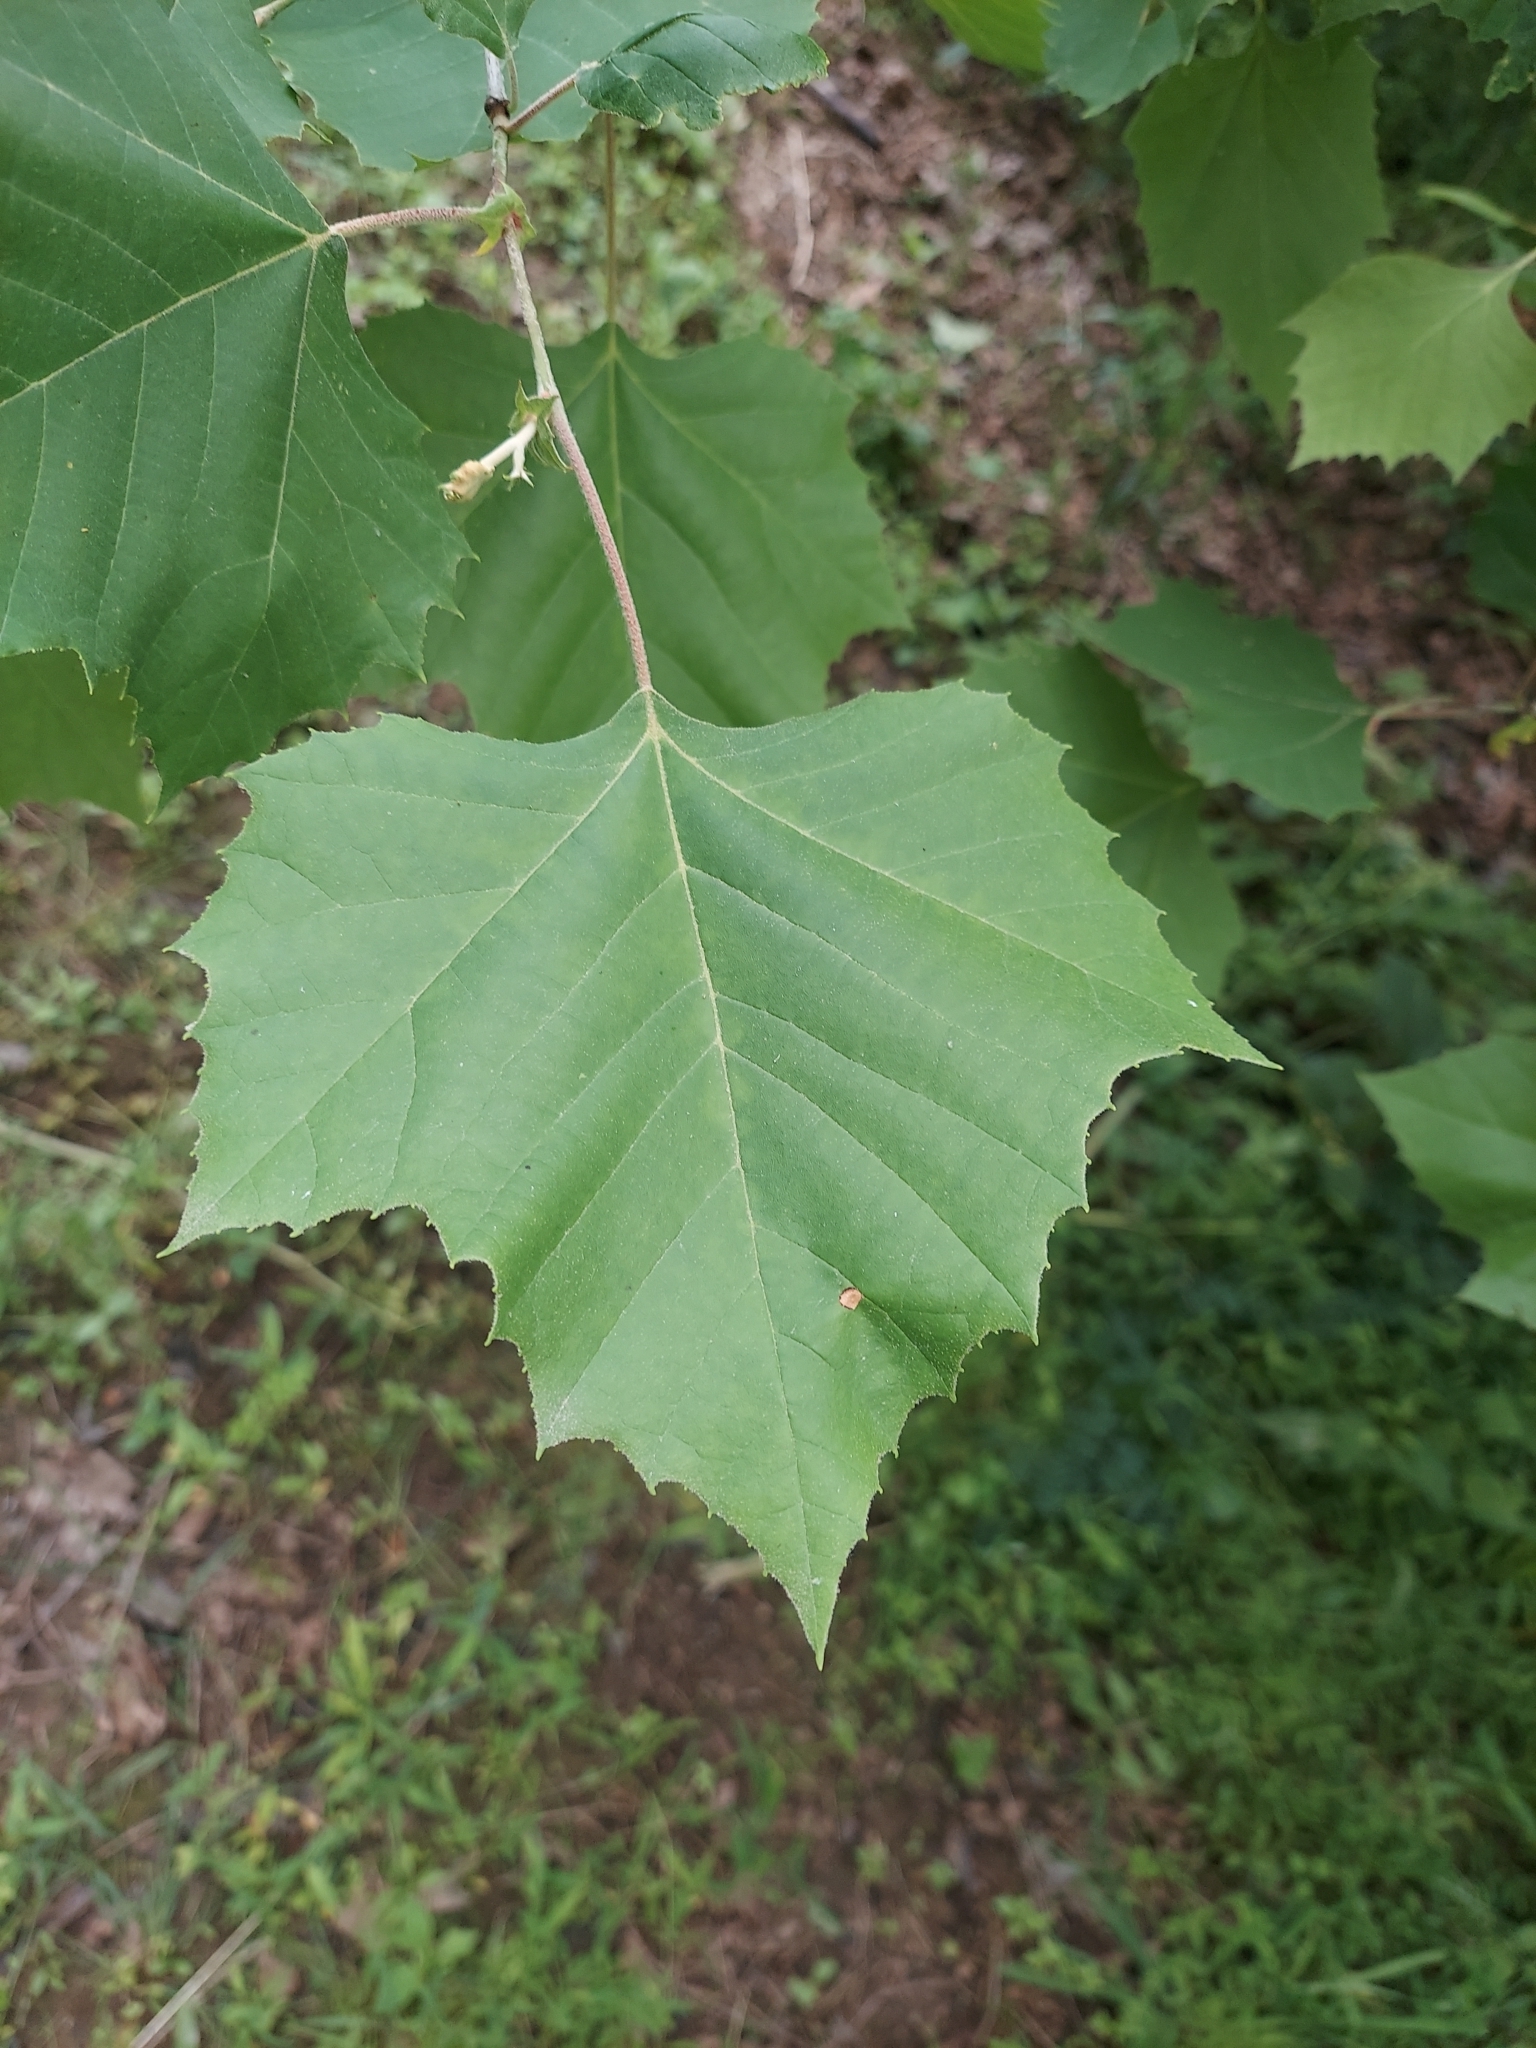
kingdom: Plantae
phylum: Tracheophyta
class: Magnoliopsida
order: Proteales
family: Platanaceae
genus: Platanus
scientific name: Platanus occidentalis
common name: American sycamore
